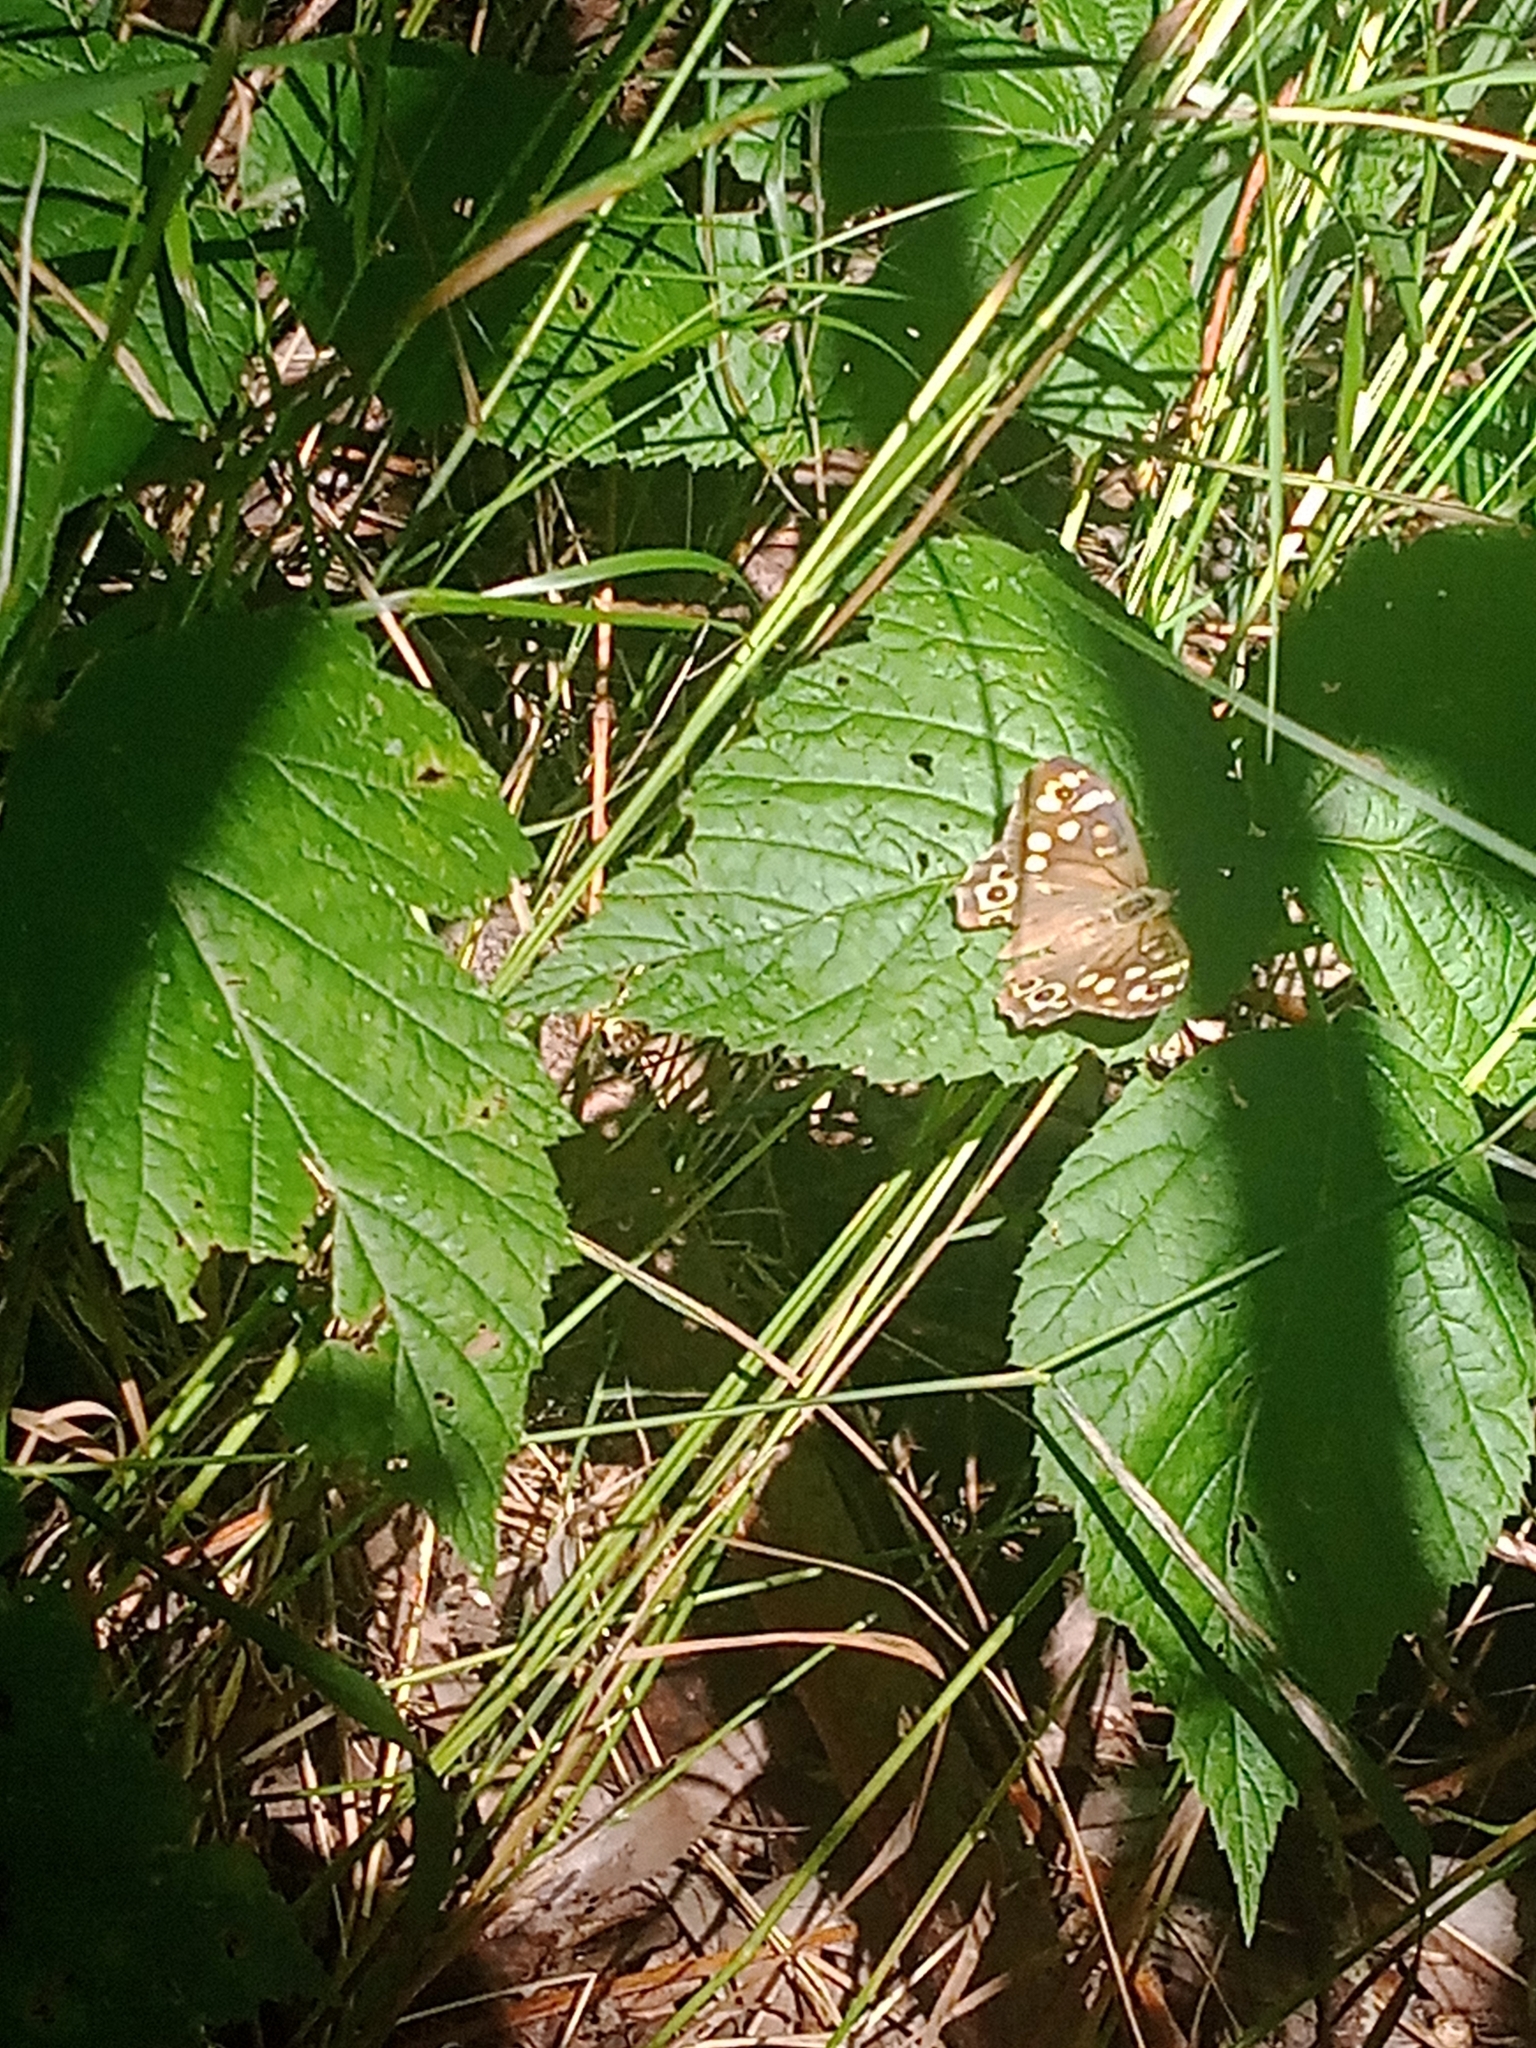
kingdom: Animalia
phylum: Arthropoda
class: Insecta
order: Lepidoptera
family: Nymphalidae
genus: Pararge
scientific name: Pararge aegeria
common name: Speckled wood
